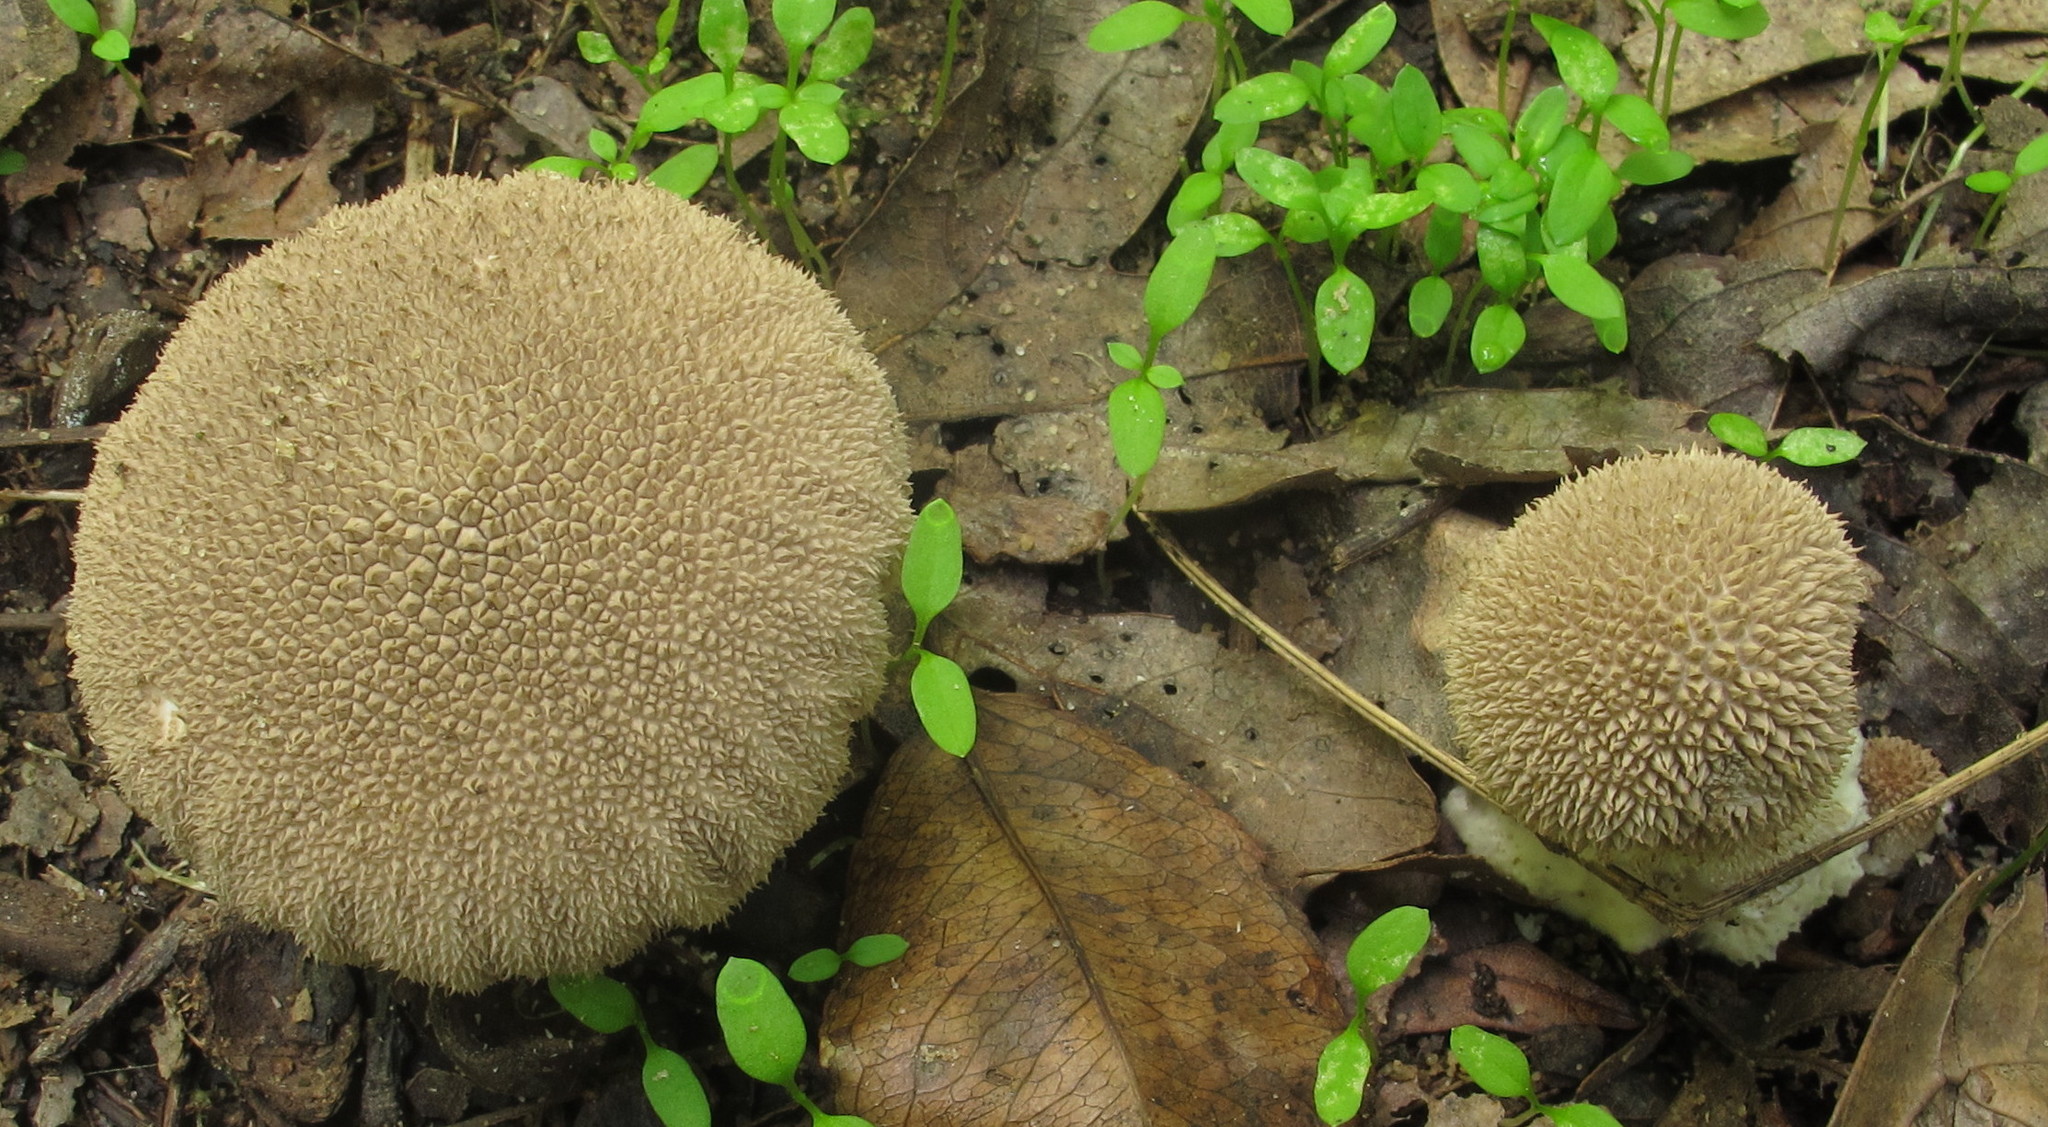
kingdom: Fungi
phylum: Basidiomycota
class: Agaricomycetes
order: Agaricales
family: Lycoperdaceae
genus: Lycoperdon
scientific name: Lycoperdon curtisii
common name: Curtis's puffball
